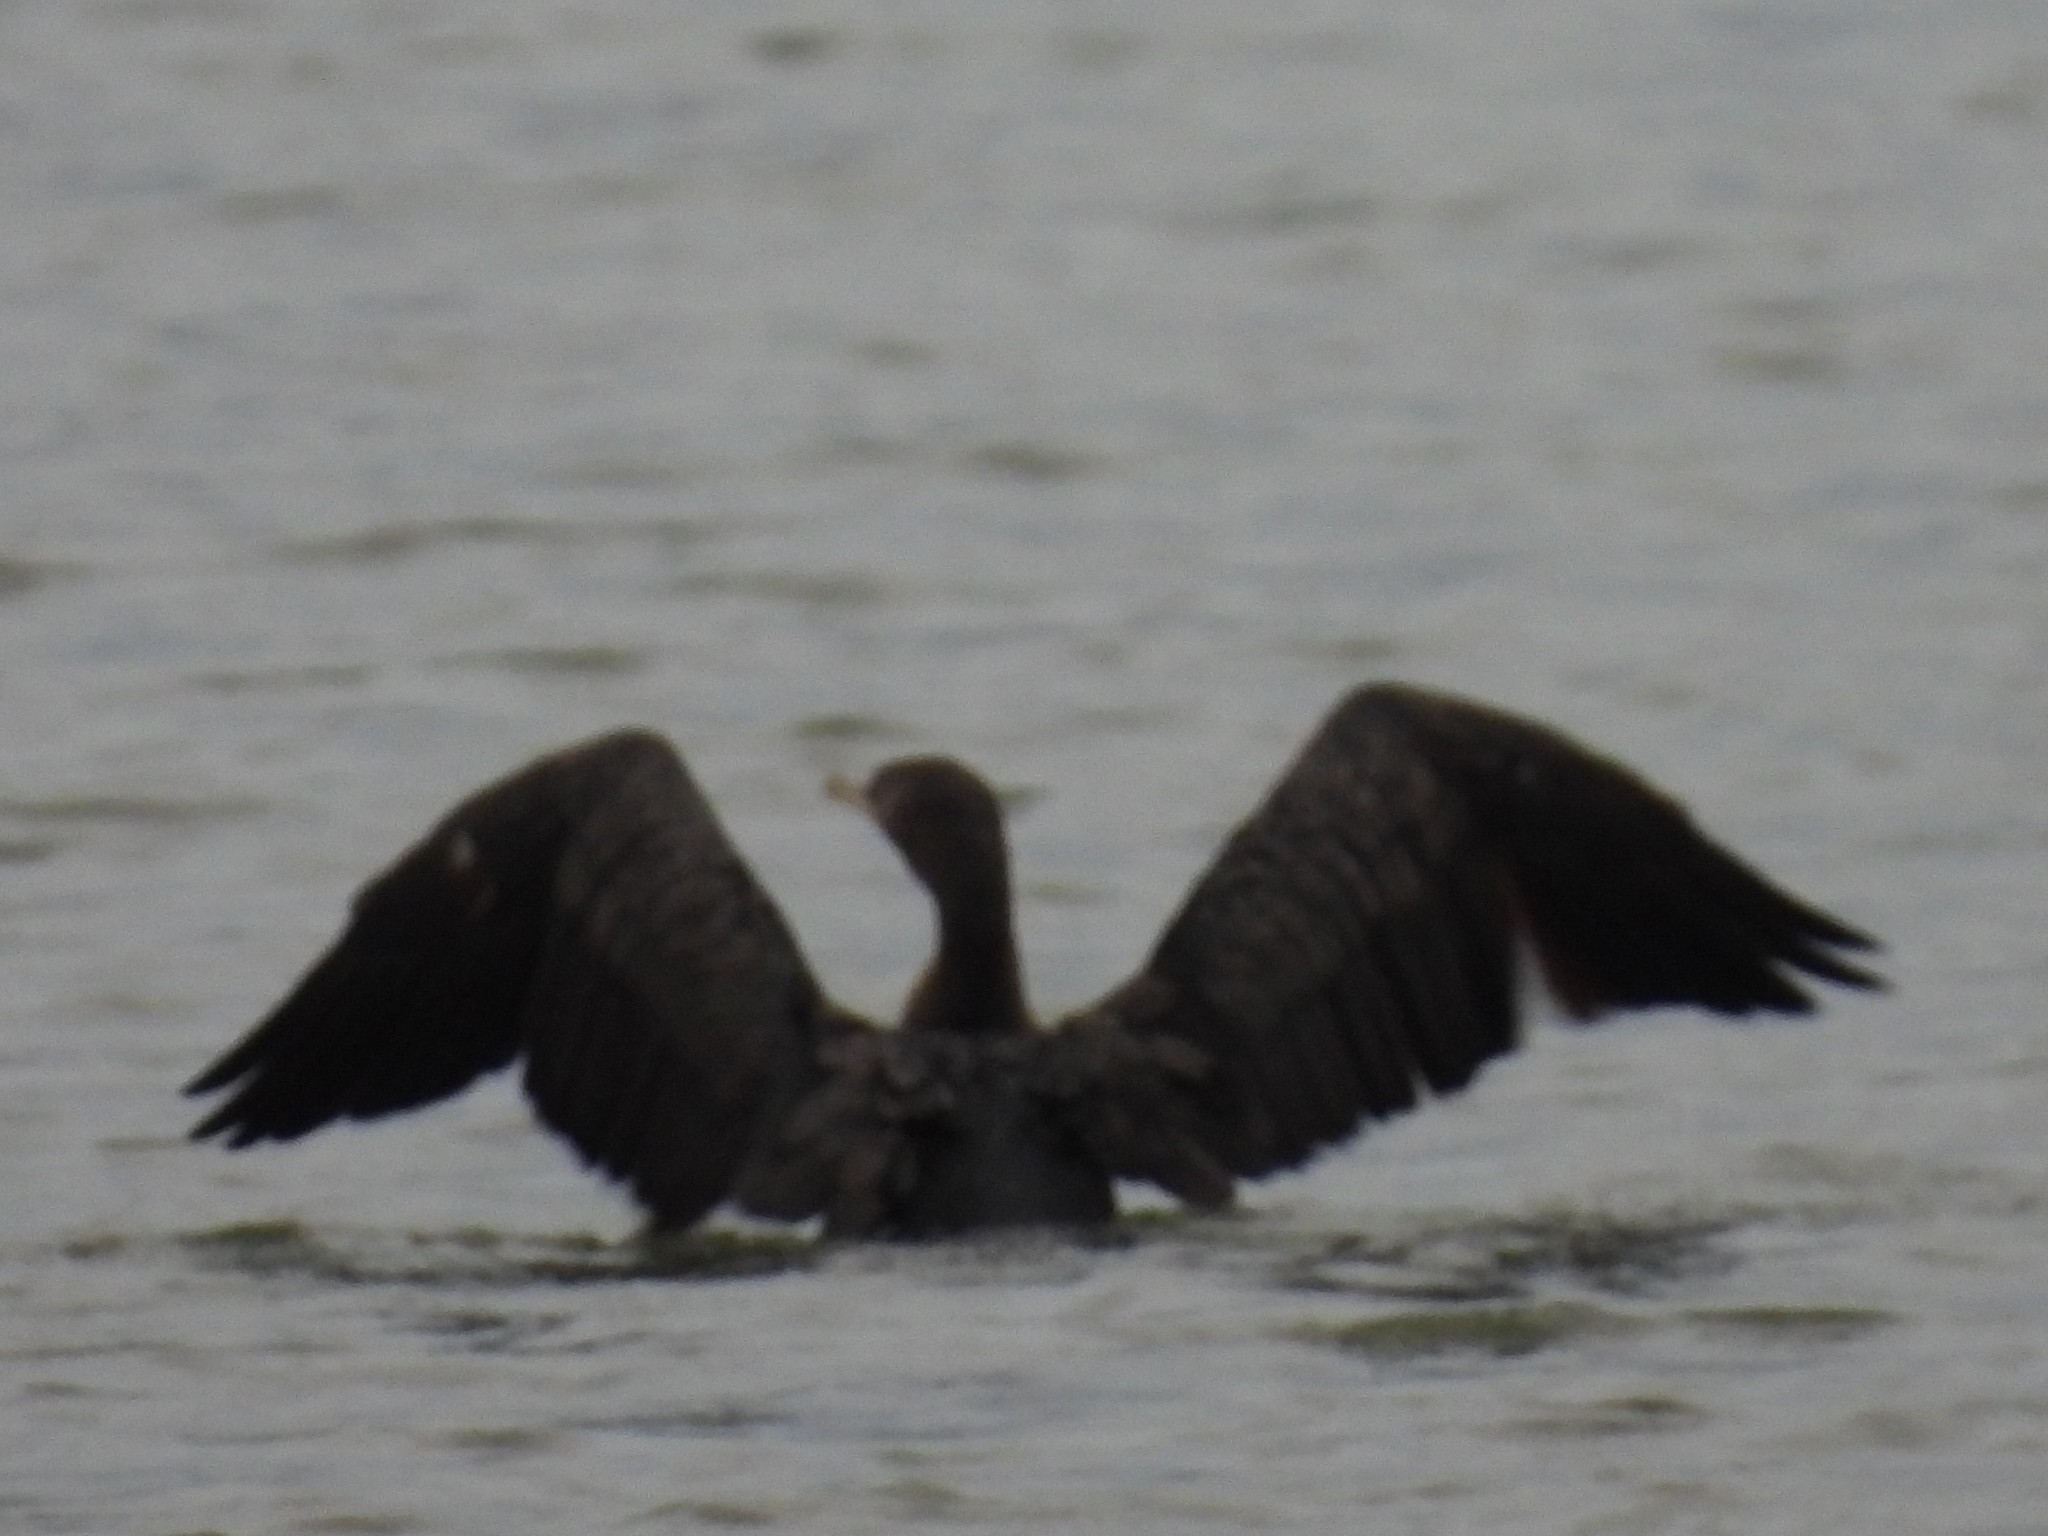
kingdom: Animalia
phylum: Chordata
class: Aves
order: Suliformes
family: Phalacrocoracidae
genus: Phalacrocorax
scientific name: Phalacrocorax auritus
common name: Double-crested cormorant
